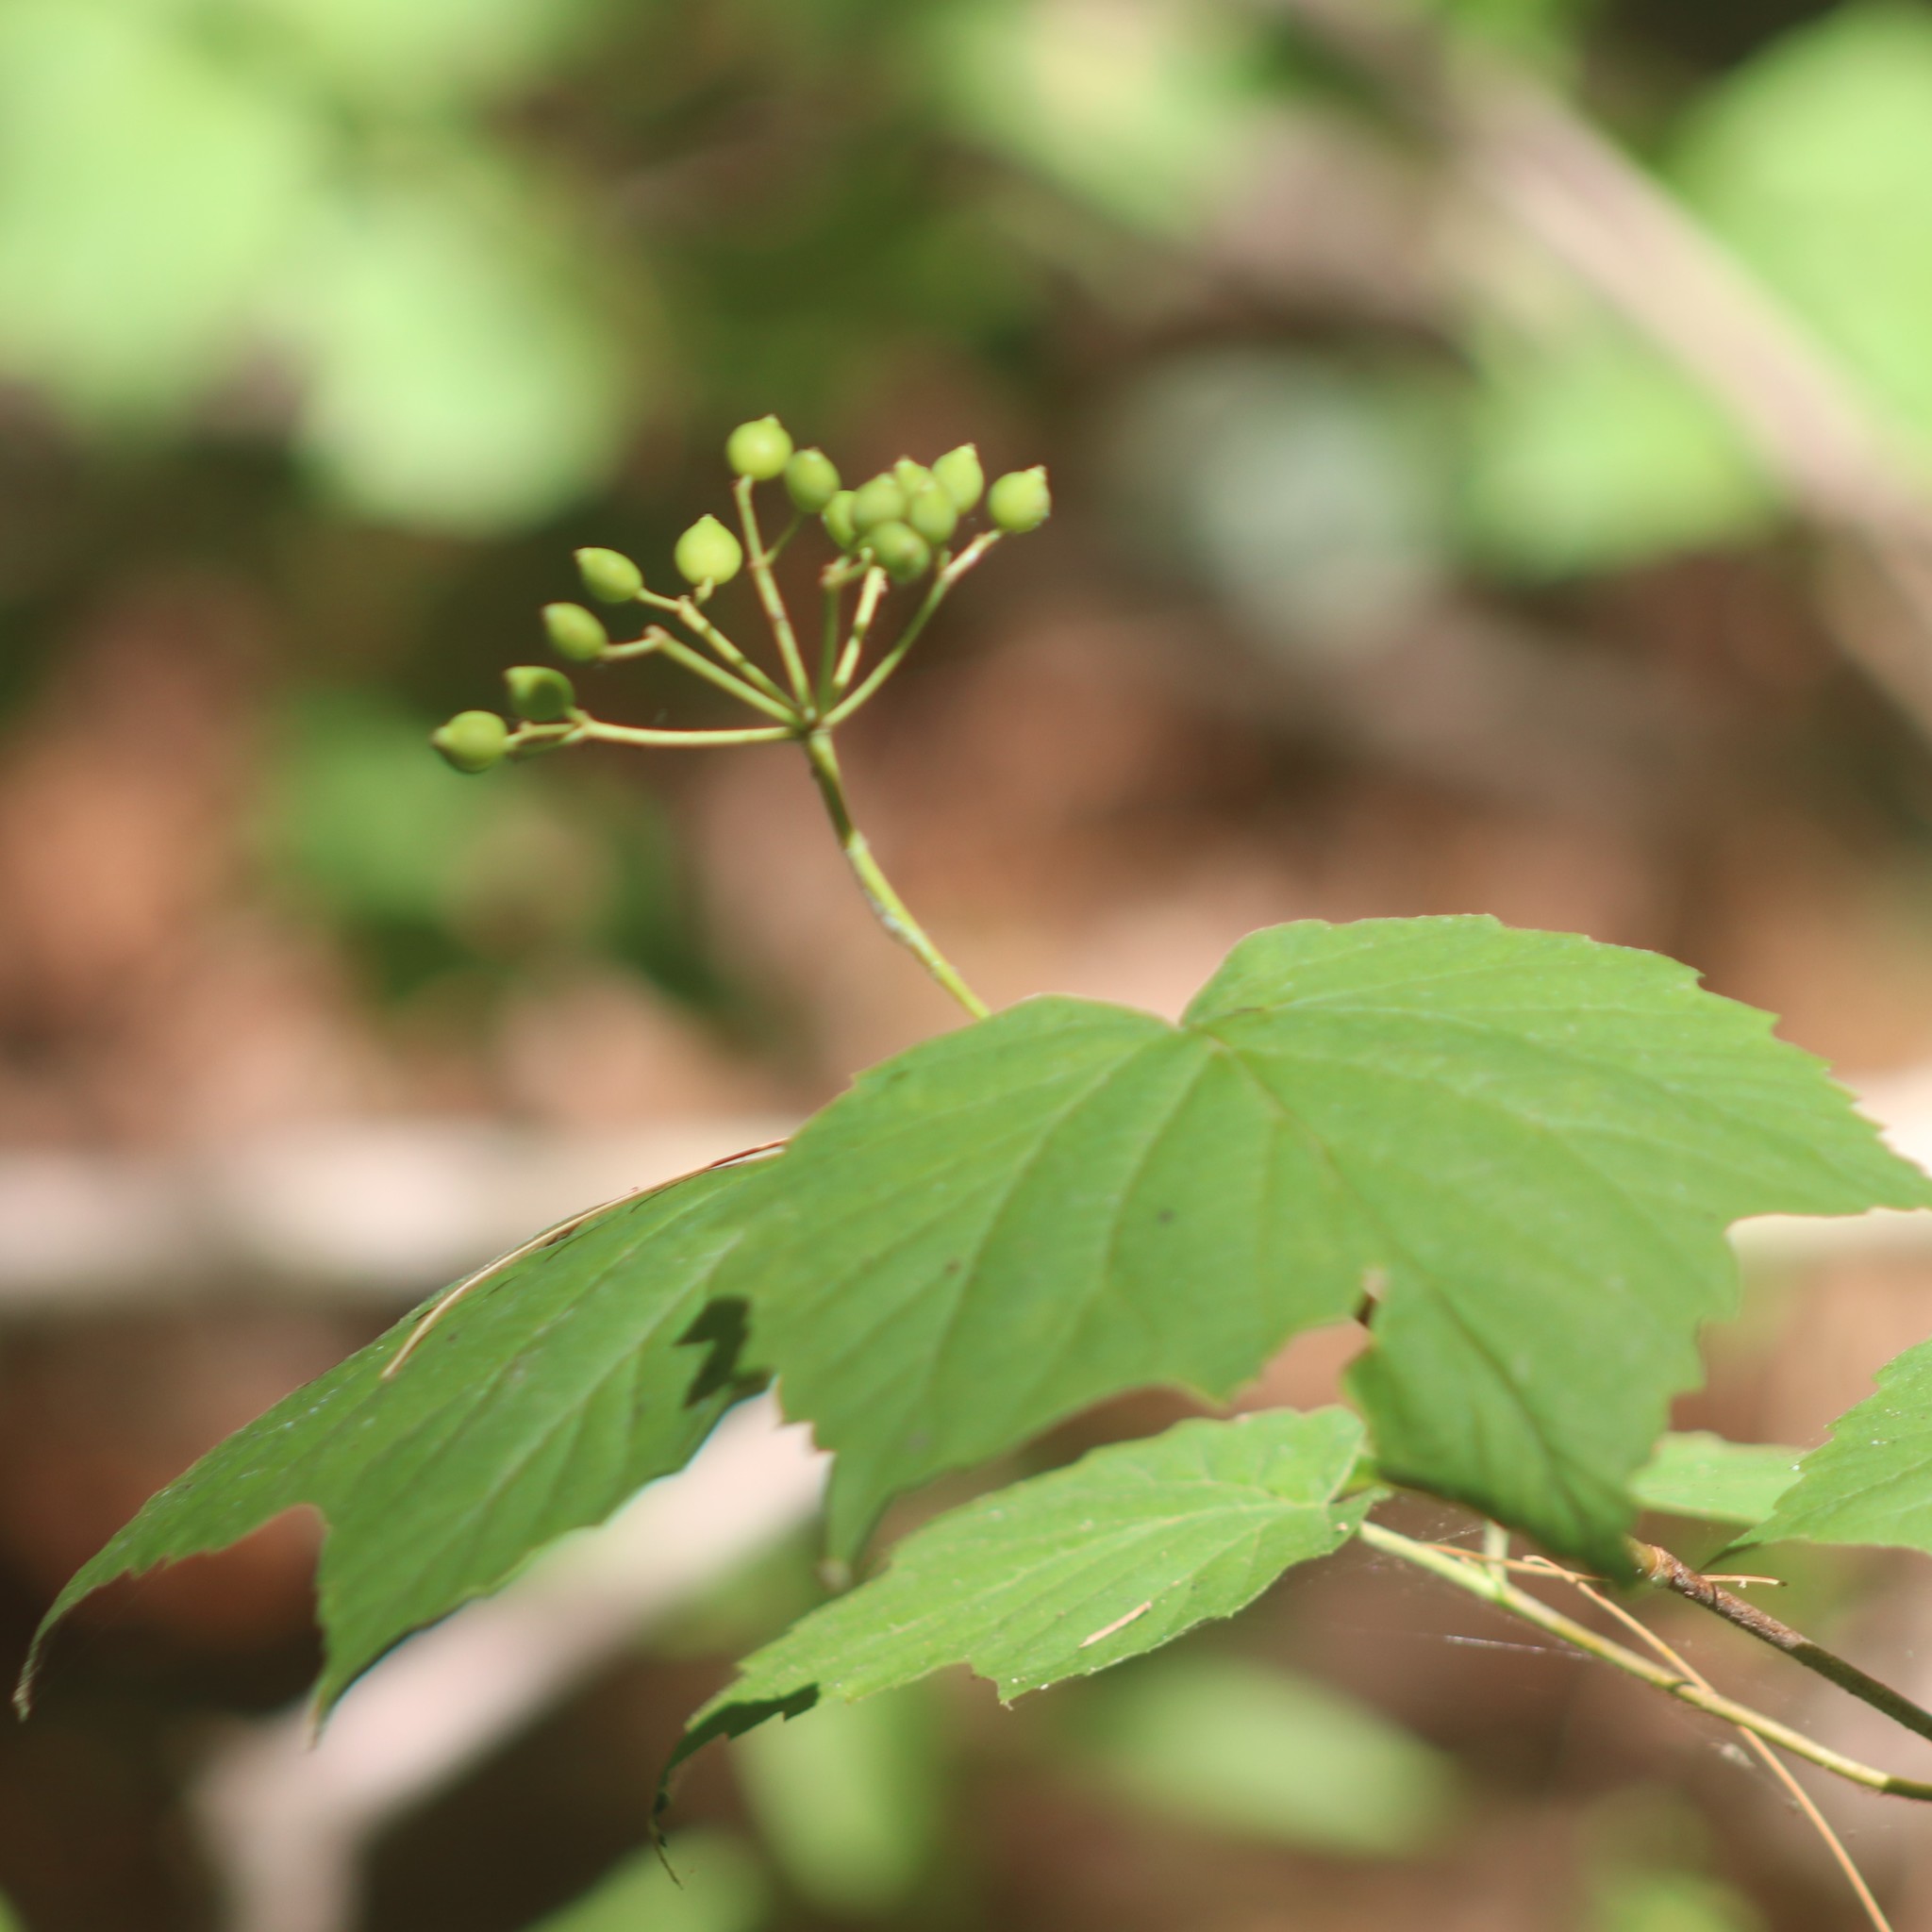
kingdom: Plantae
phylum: Tracheophyta
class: Magnoliopsida
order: Dipsacales
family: Viburnaceae
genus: Viburnum
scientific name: Viburnum acerifolium
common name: Dockmackie
